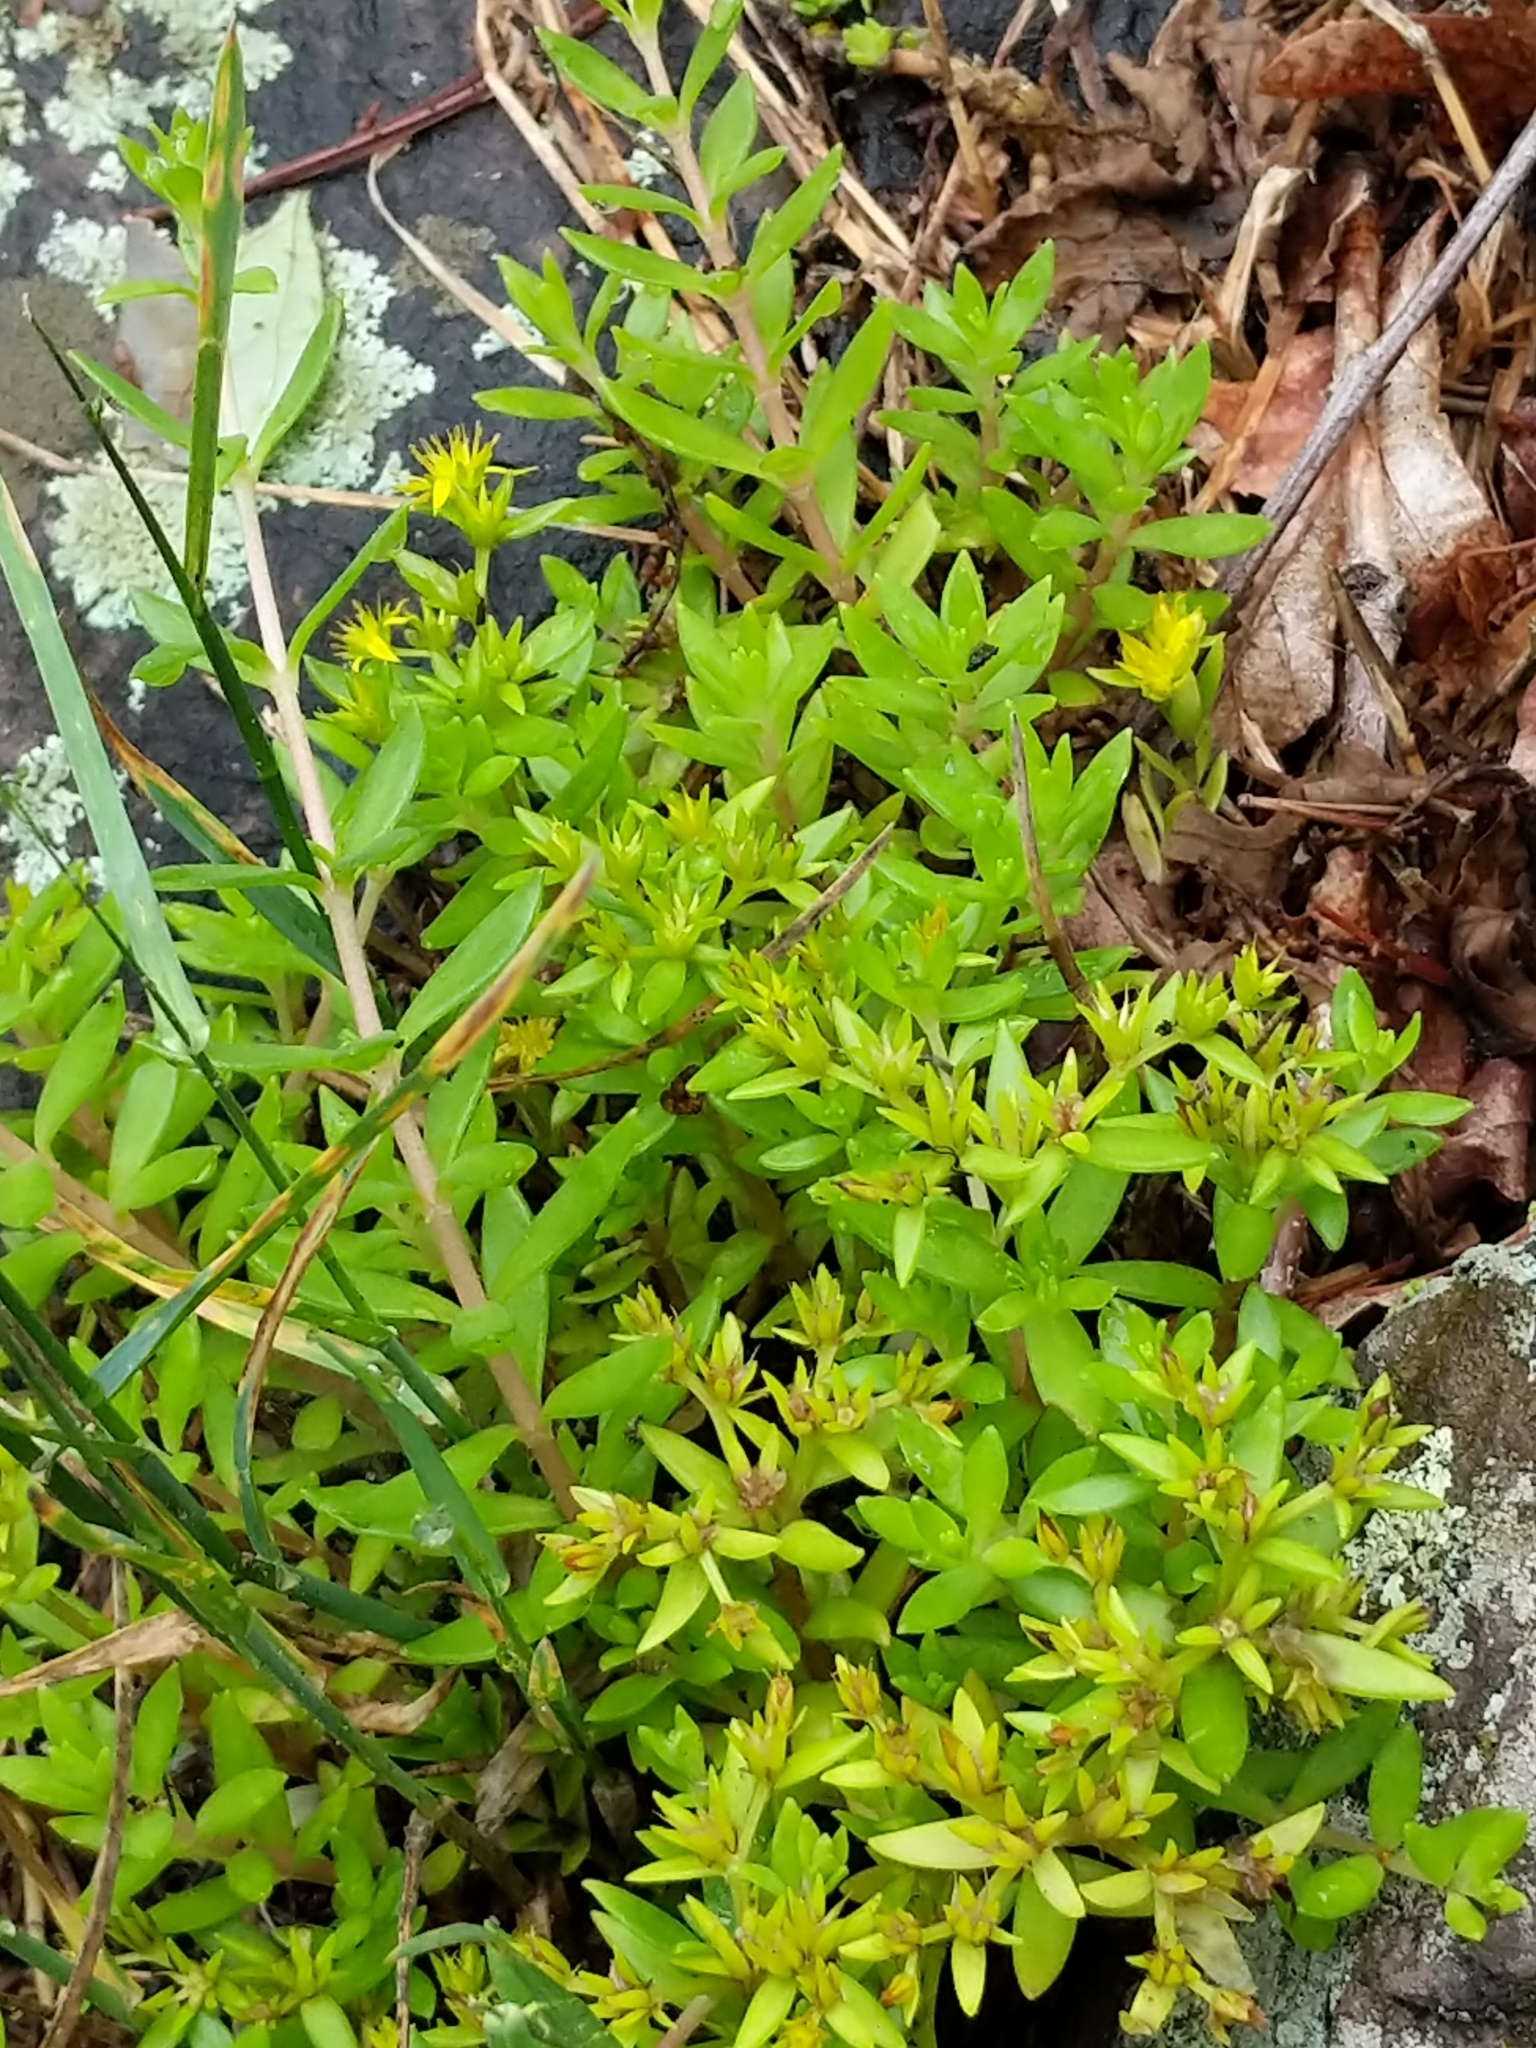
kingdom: Plantae
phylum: Tracheophyta
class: Magnoliopsida
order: Saxifragales
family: Crassulaceae
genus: Sedum
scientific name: Sedum sarmentosum
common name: Stringy stonecrop
